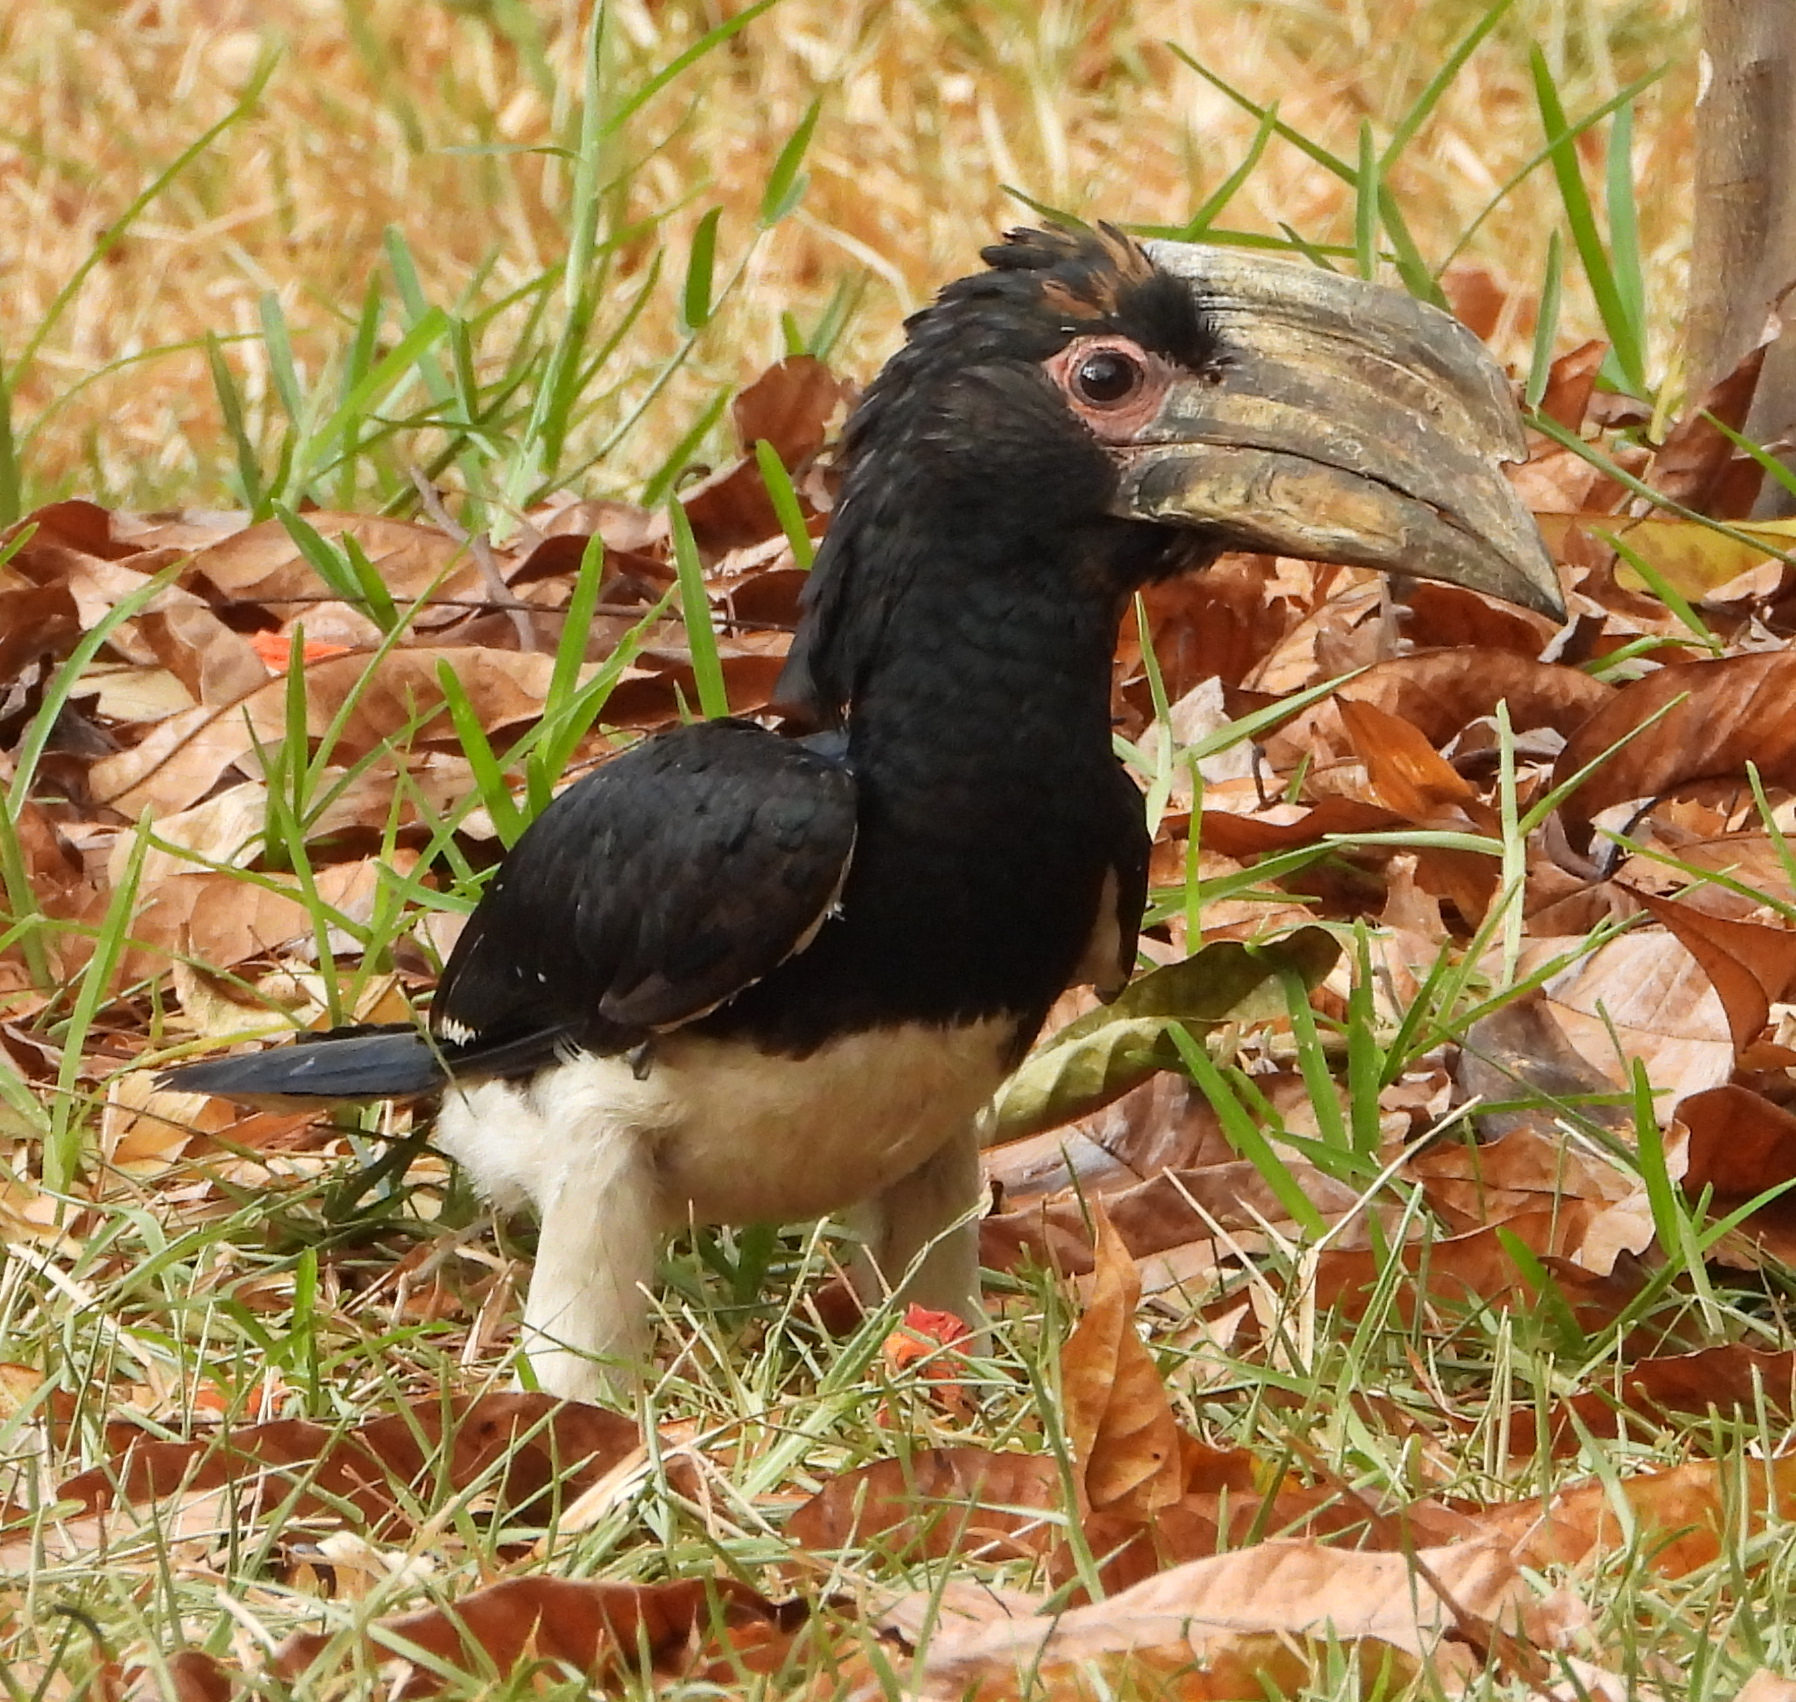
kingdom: Animalia
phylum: Chordata
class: Aves
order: Bucerotiformes
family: Bucerotidae
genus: Bycanistes
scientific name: Bycanistes bucinator
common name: Trumpeter hornbill
